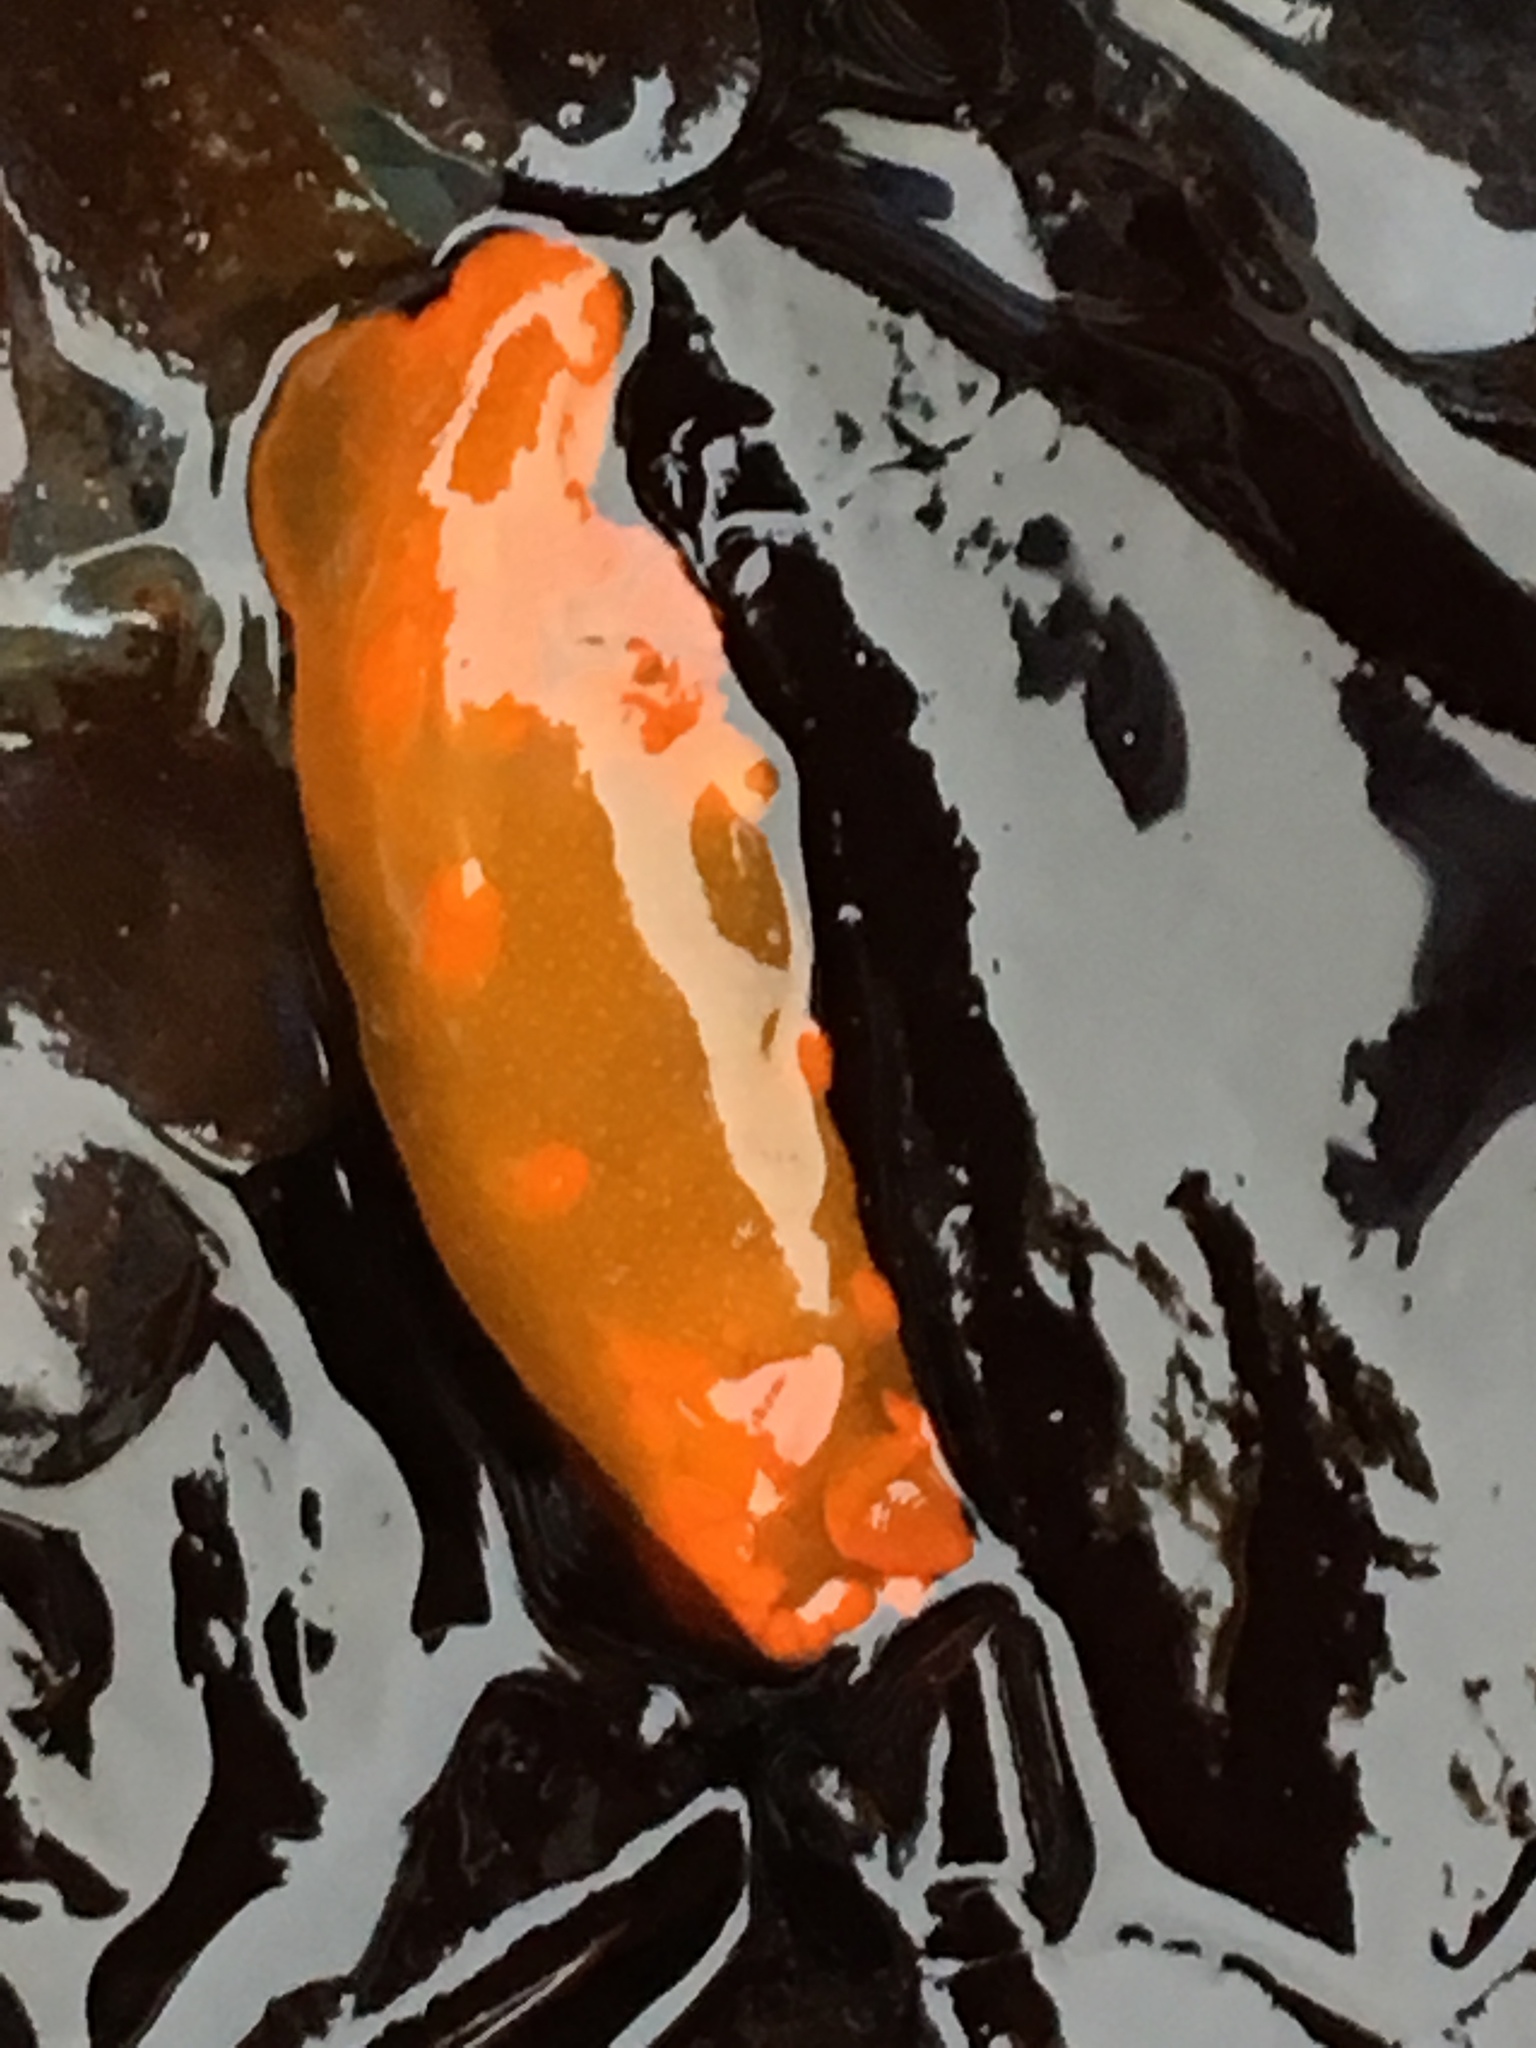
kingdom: Animalia
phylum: Mollusca
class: Gastropoda
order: Nudibranchia
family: Polyceridae
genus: Triopha
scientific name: Triopha maculata
